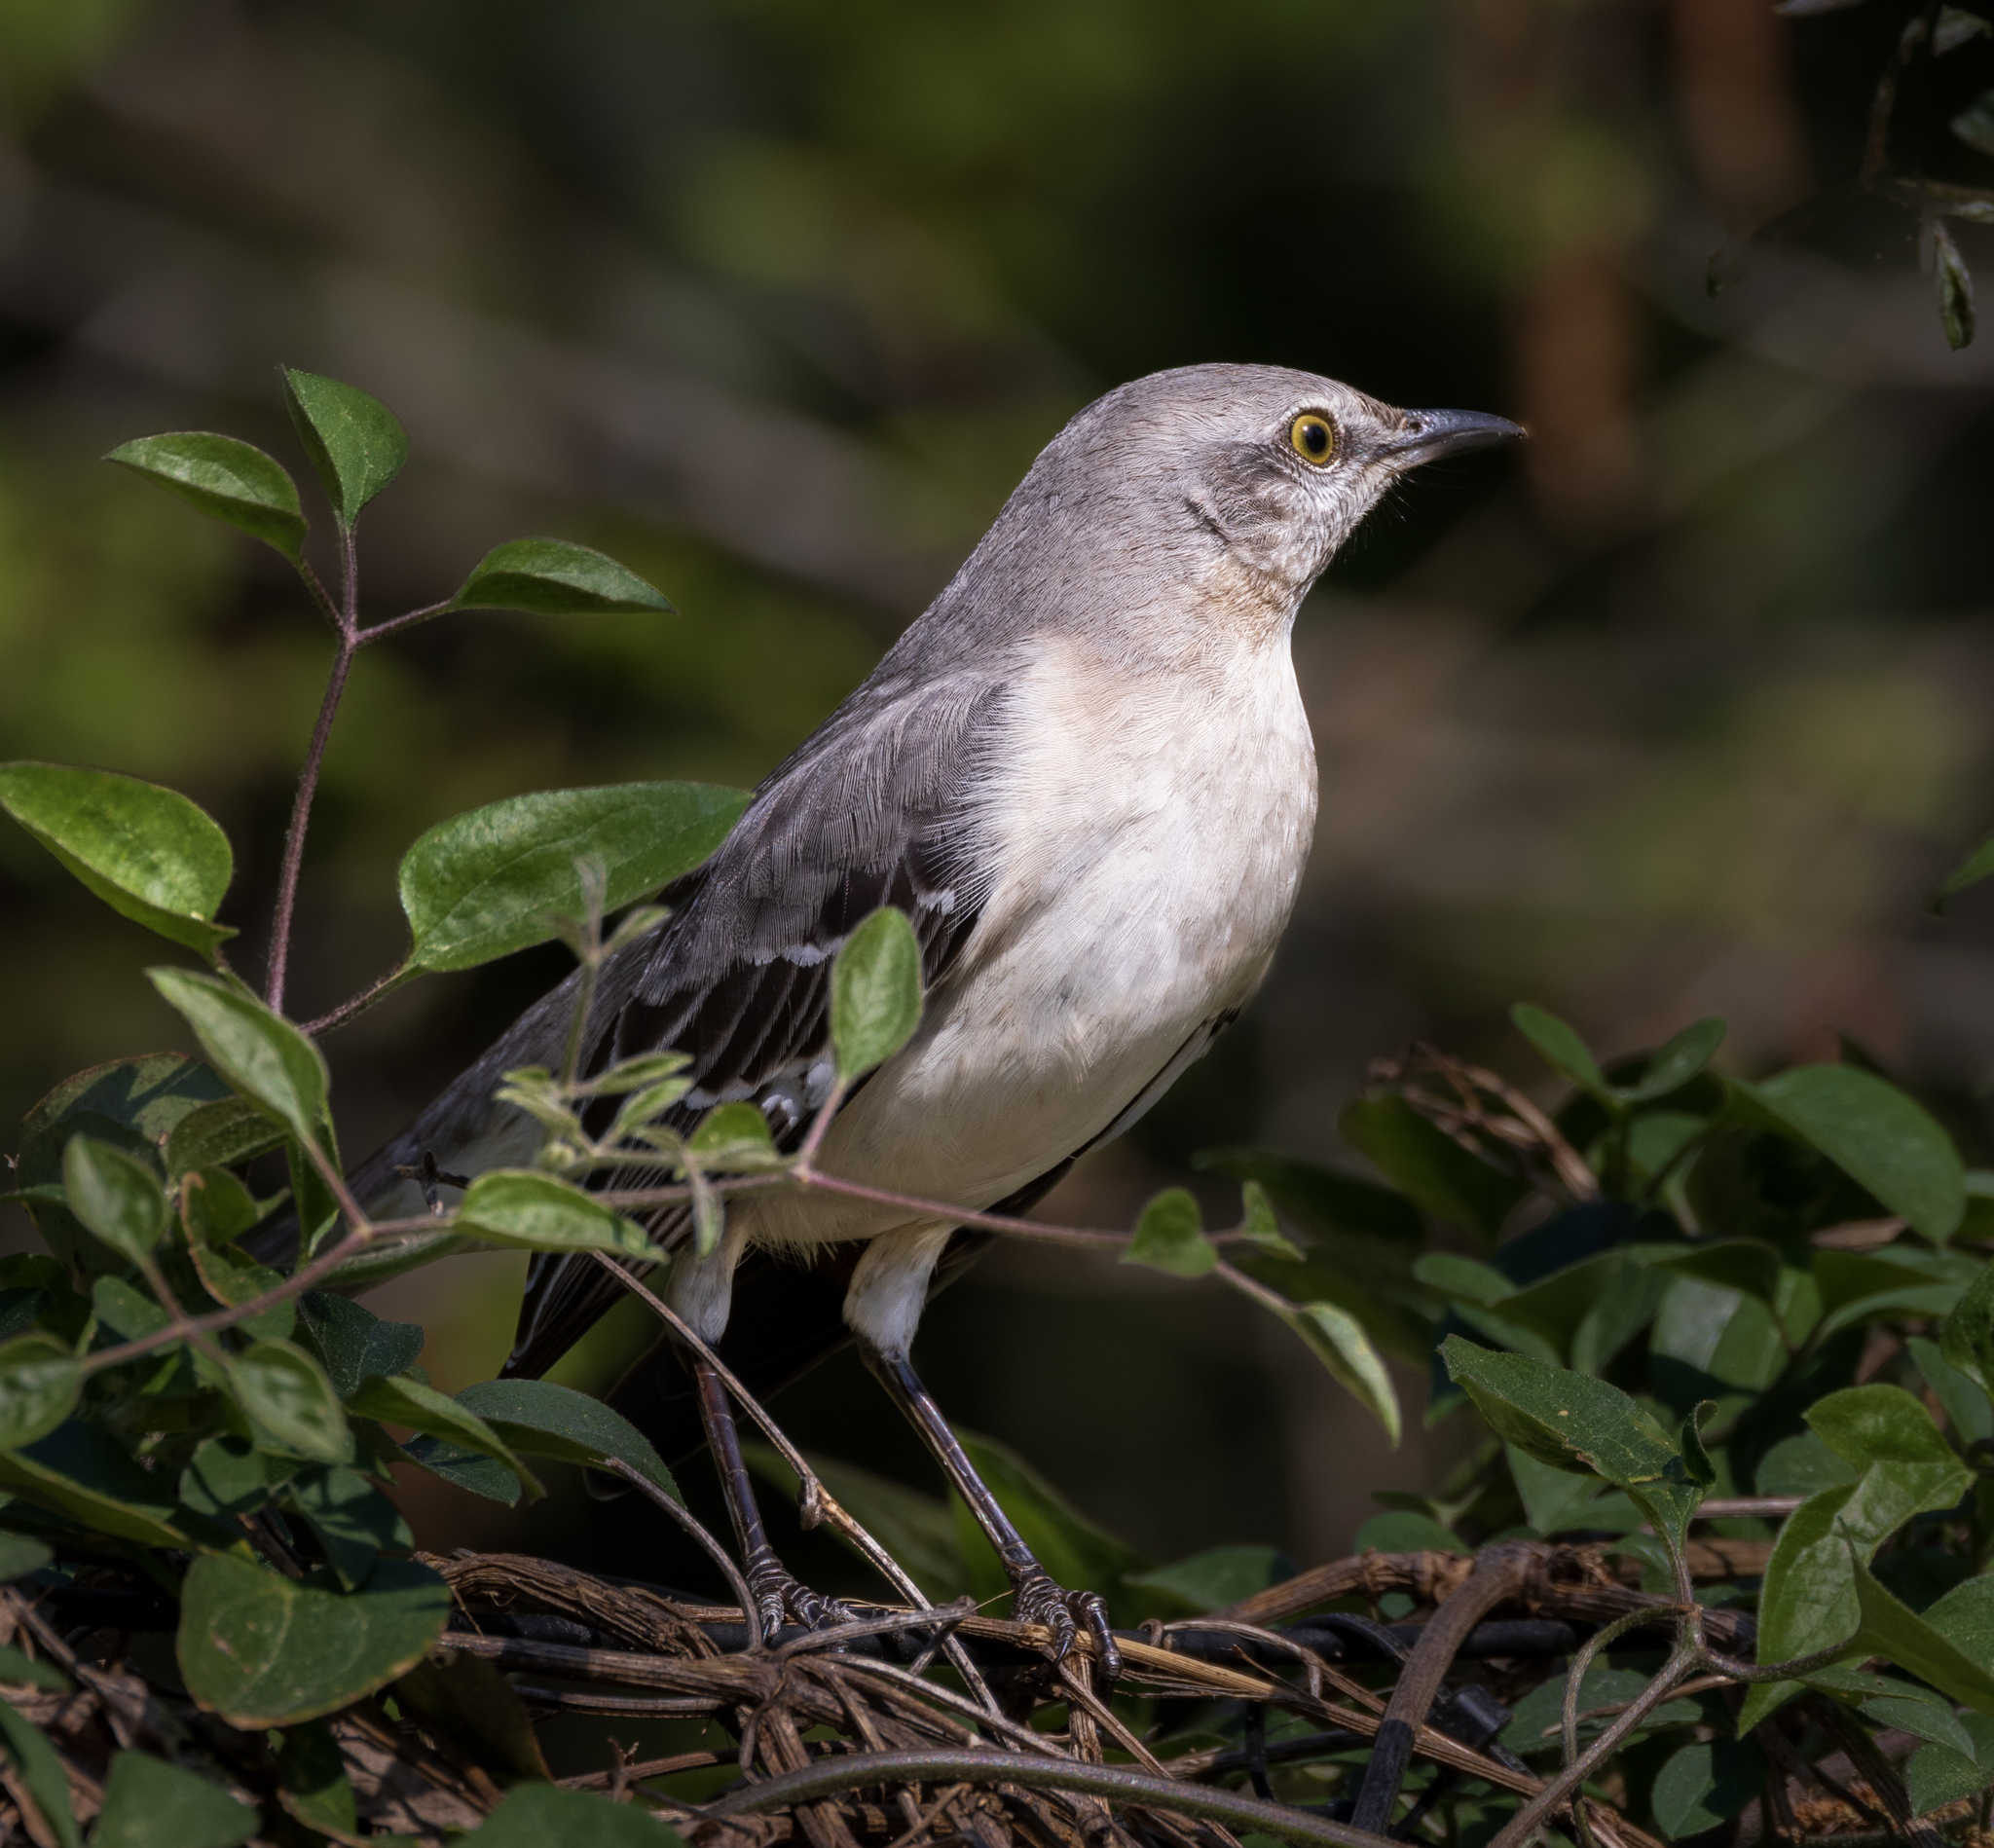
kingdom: Animalia
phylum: Chordata
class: Aves
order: Passeriformes
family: Mimidae
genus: Mimus
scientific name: Mimus polyglottos
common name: Northern mockingbird
